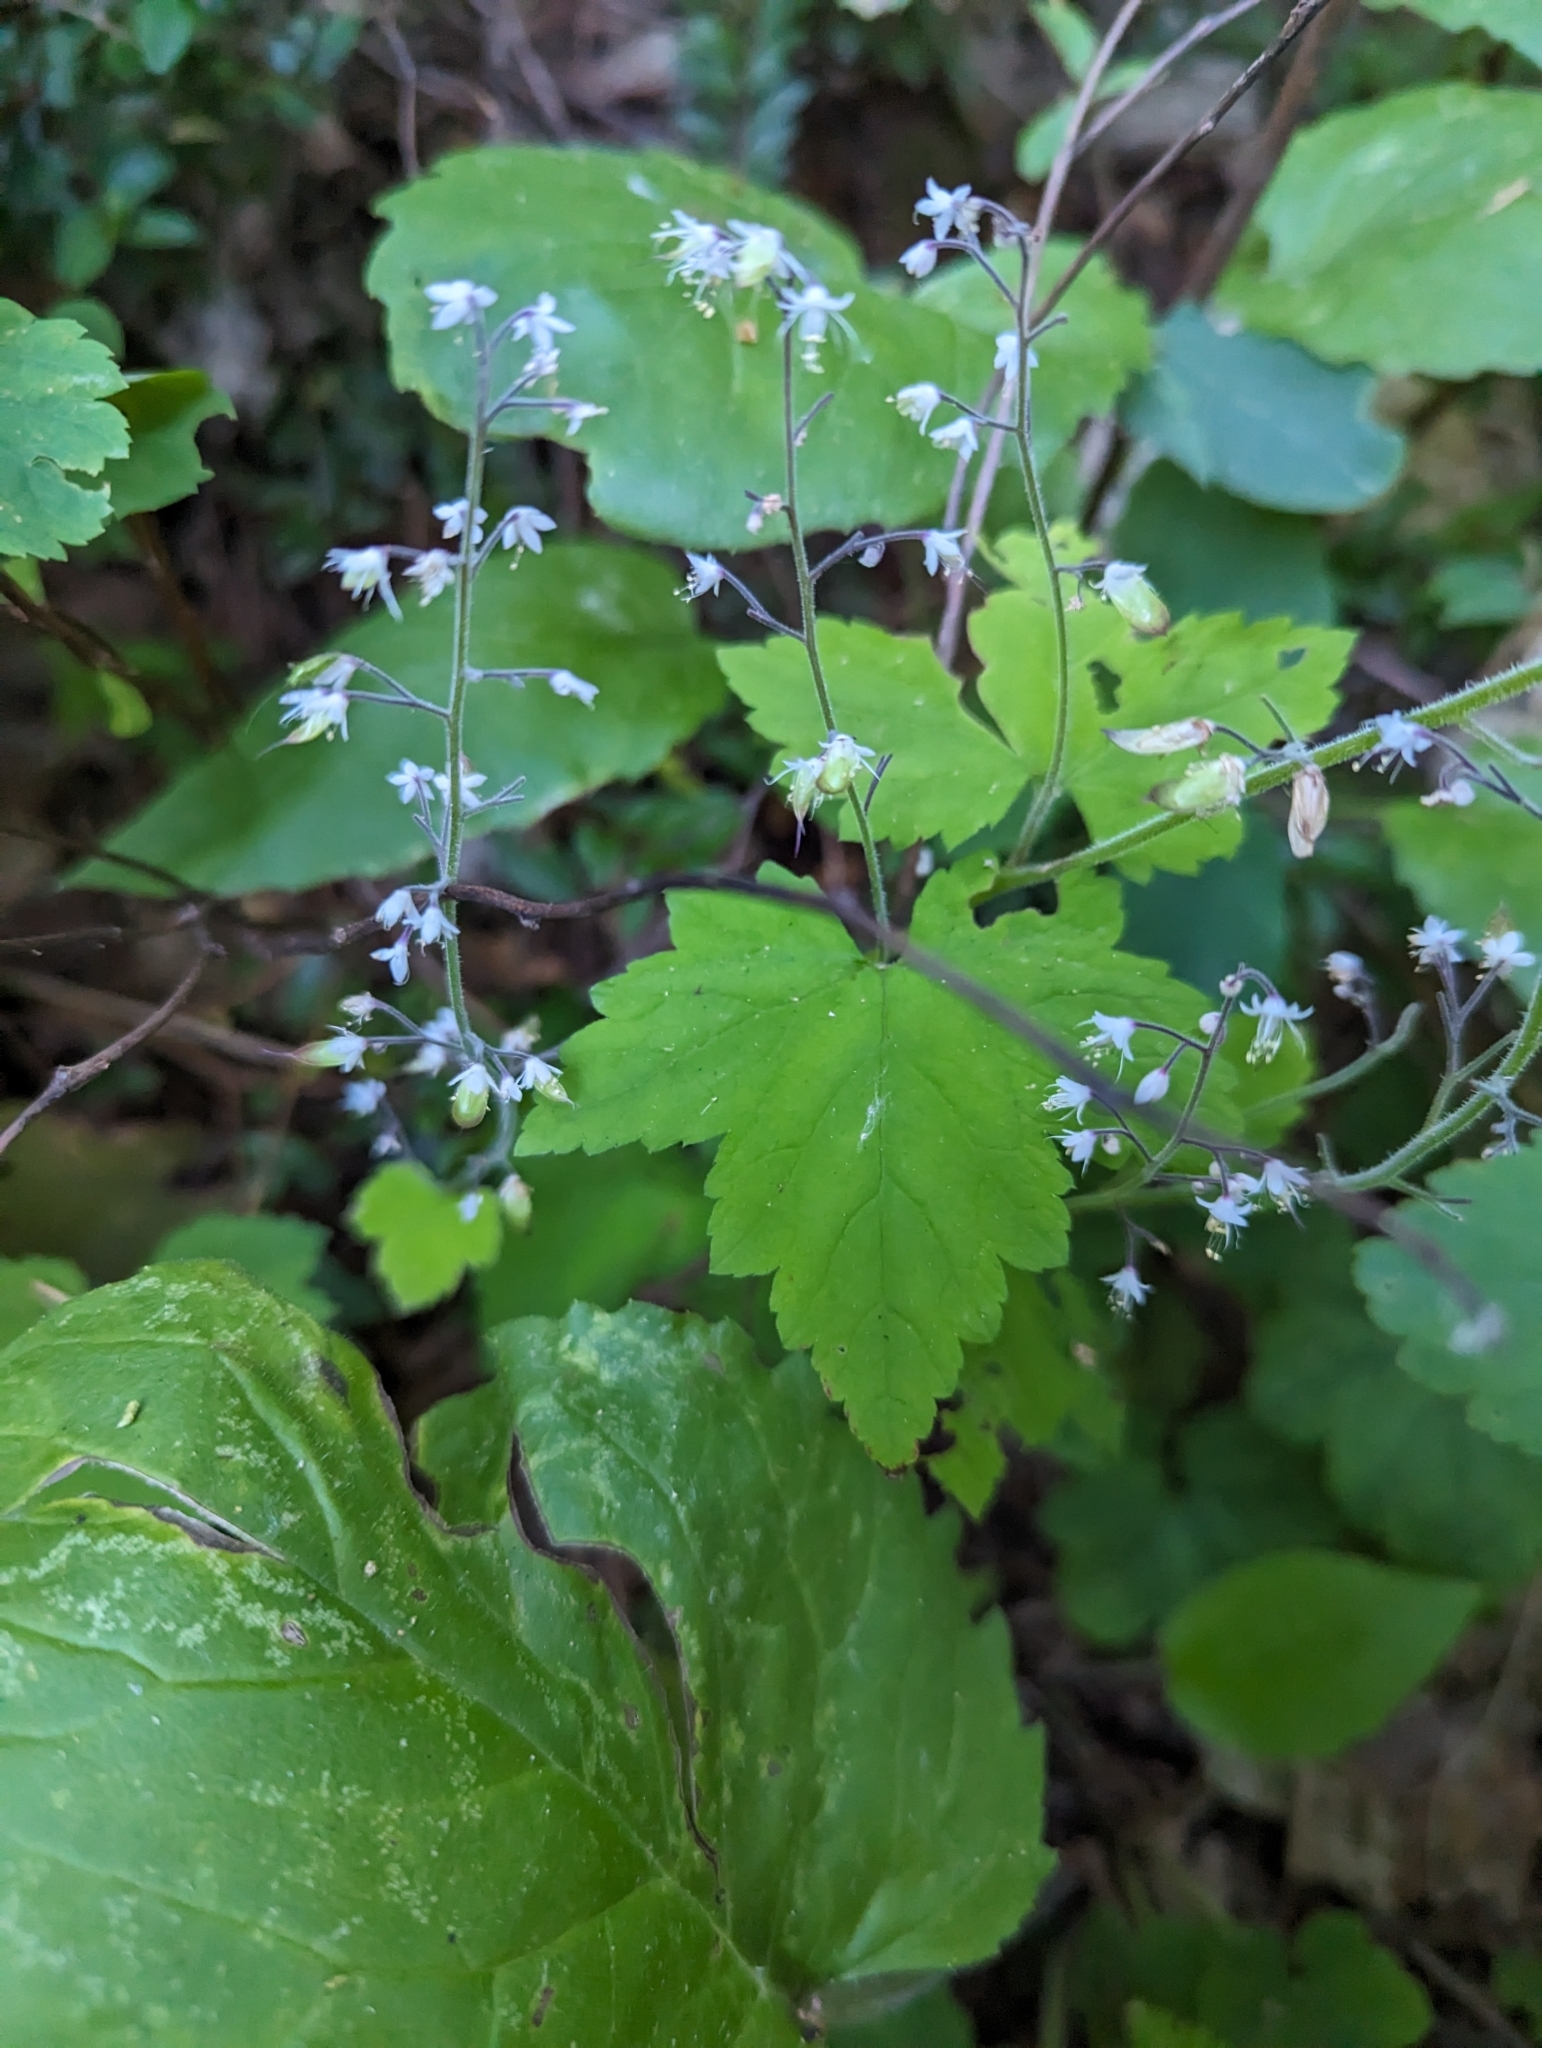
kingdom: Plantae
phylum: Tracheophyta
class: Magnoliopsida
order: Saxifragales
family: Saxifragaceae
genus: Tiarella
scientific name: Tiarella trifoliata
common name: Sugar-scoop
